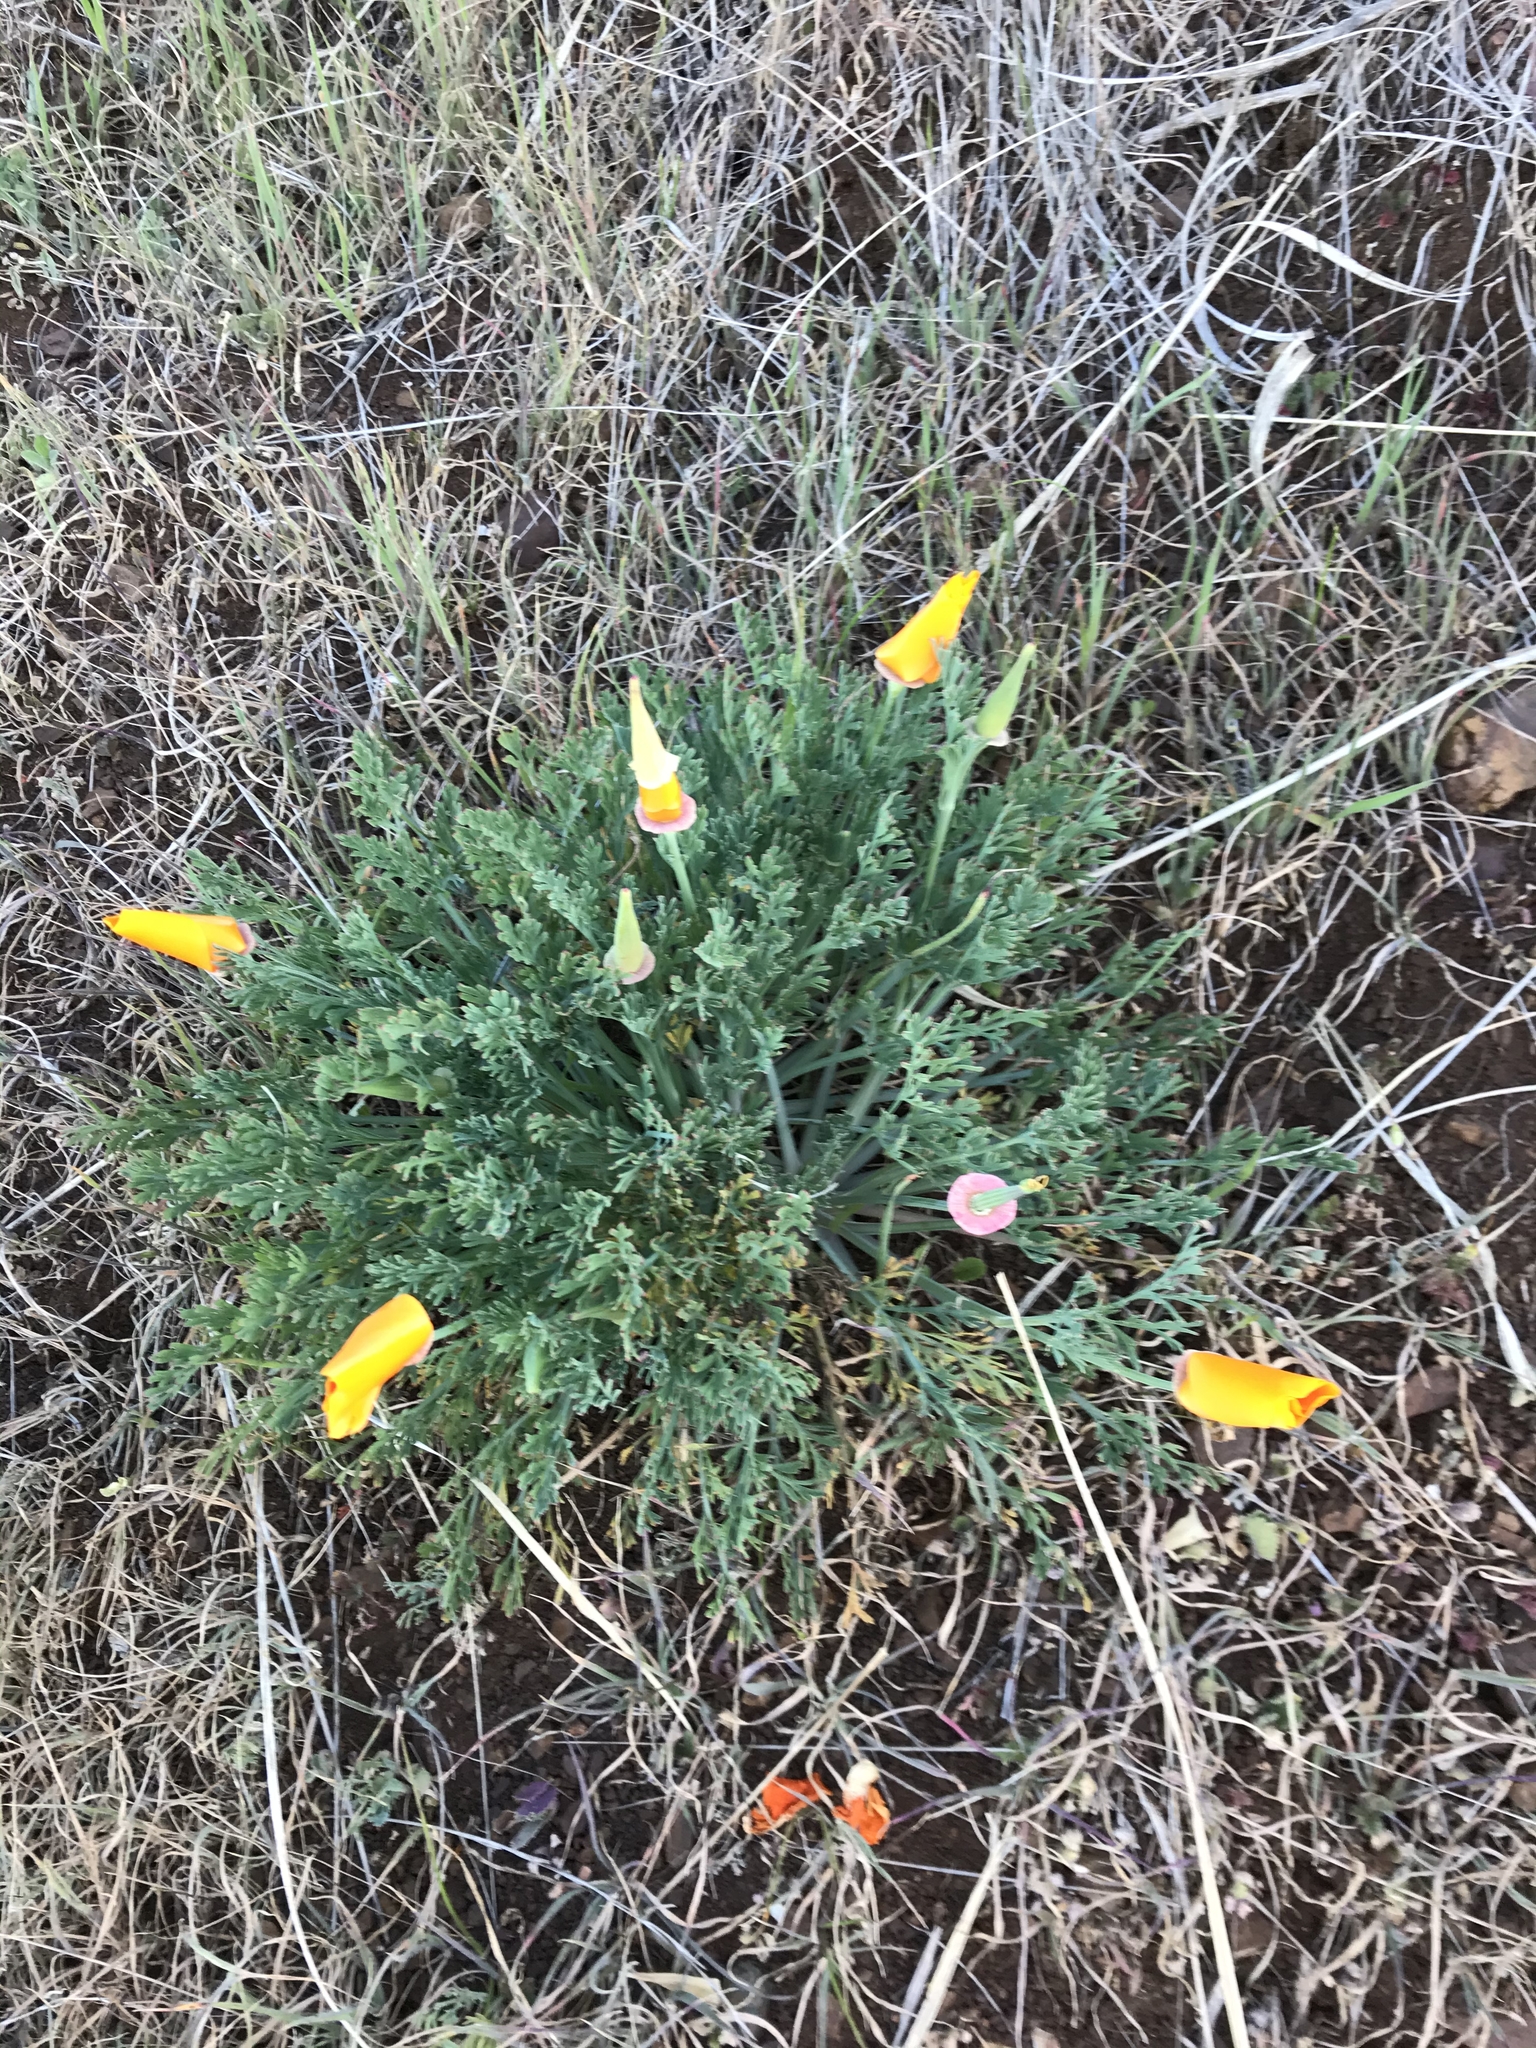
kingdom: Plantae
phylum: Tracheophyta
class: Magnoliopsida
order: Ranunculales
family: Papaveraceae
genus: Eschscholzia
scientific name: Eschscholzia californica
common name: California poppy
